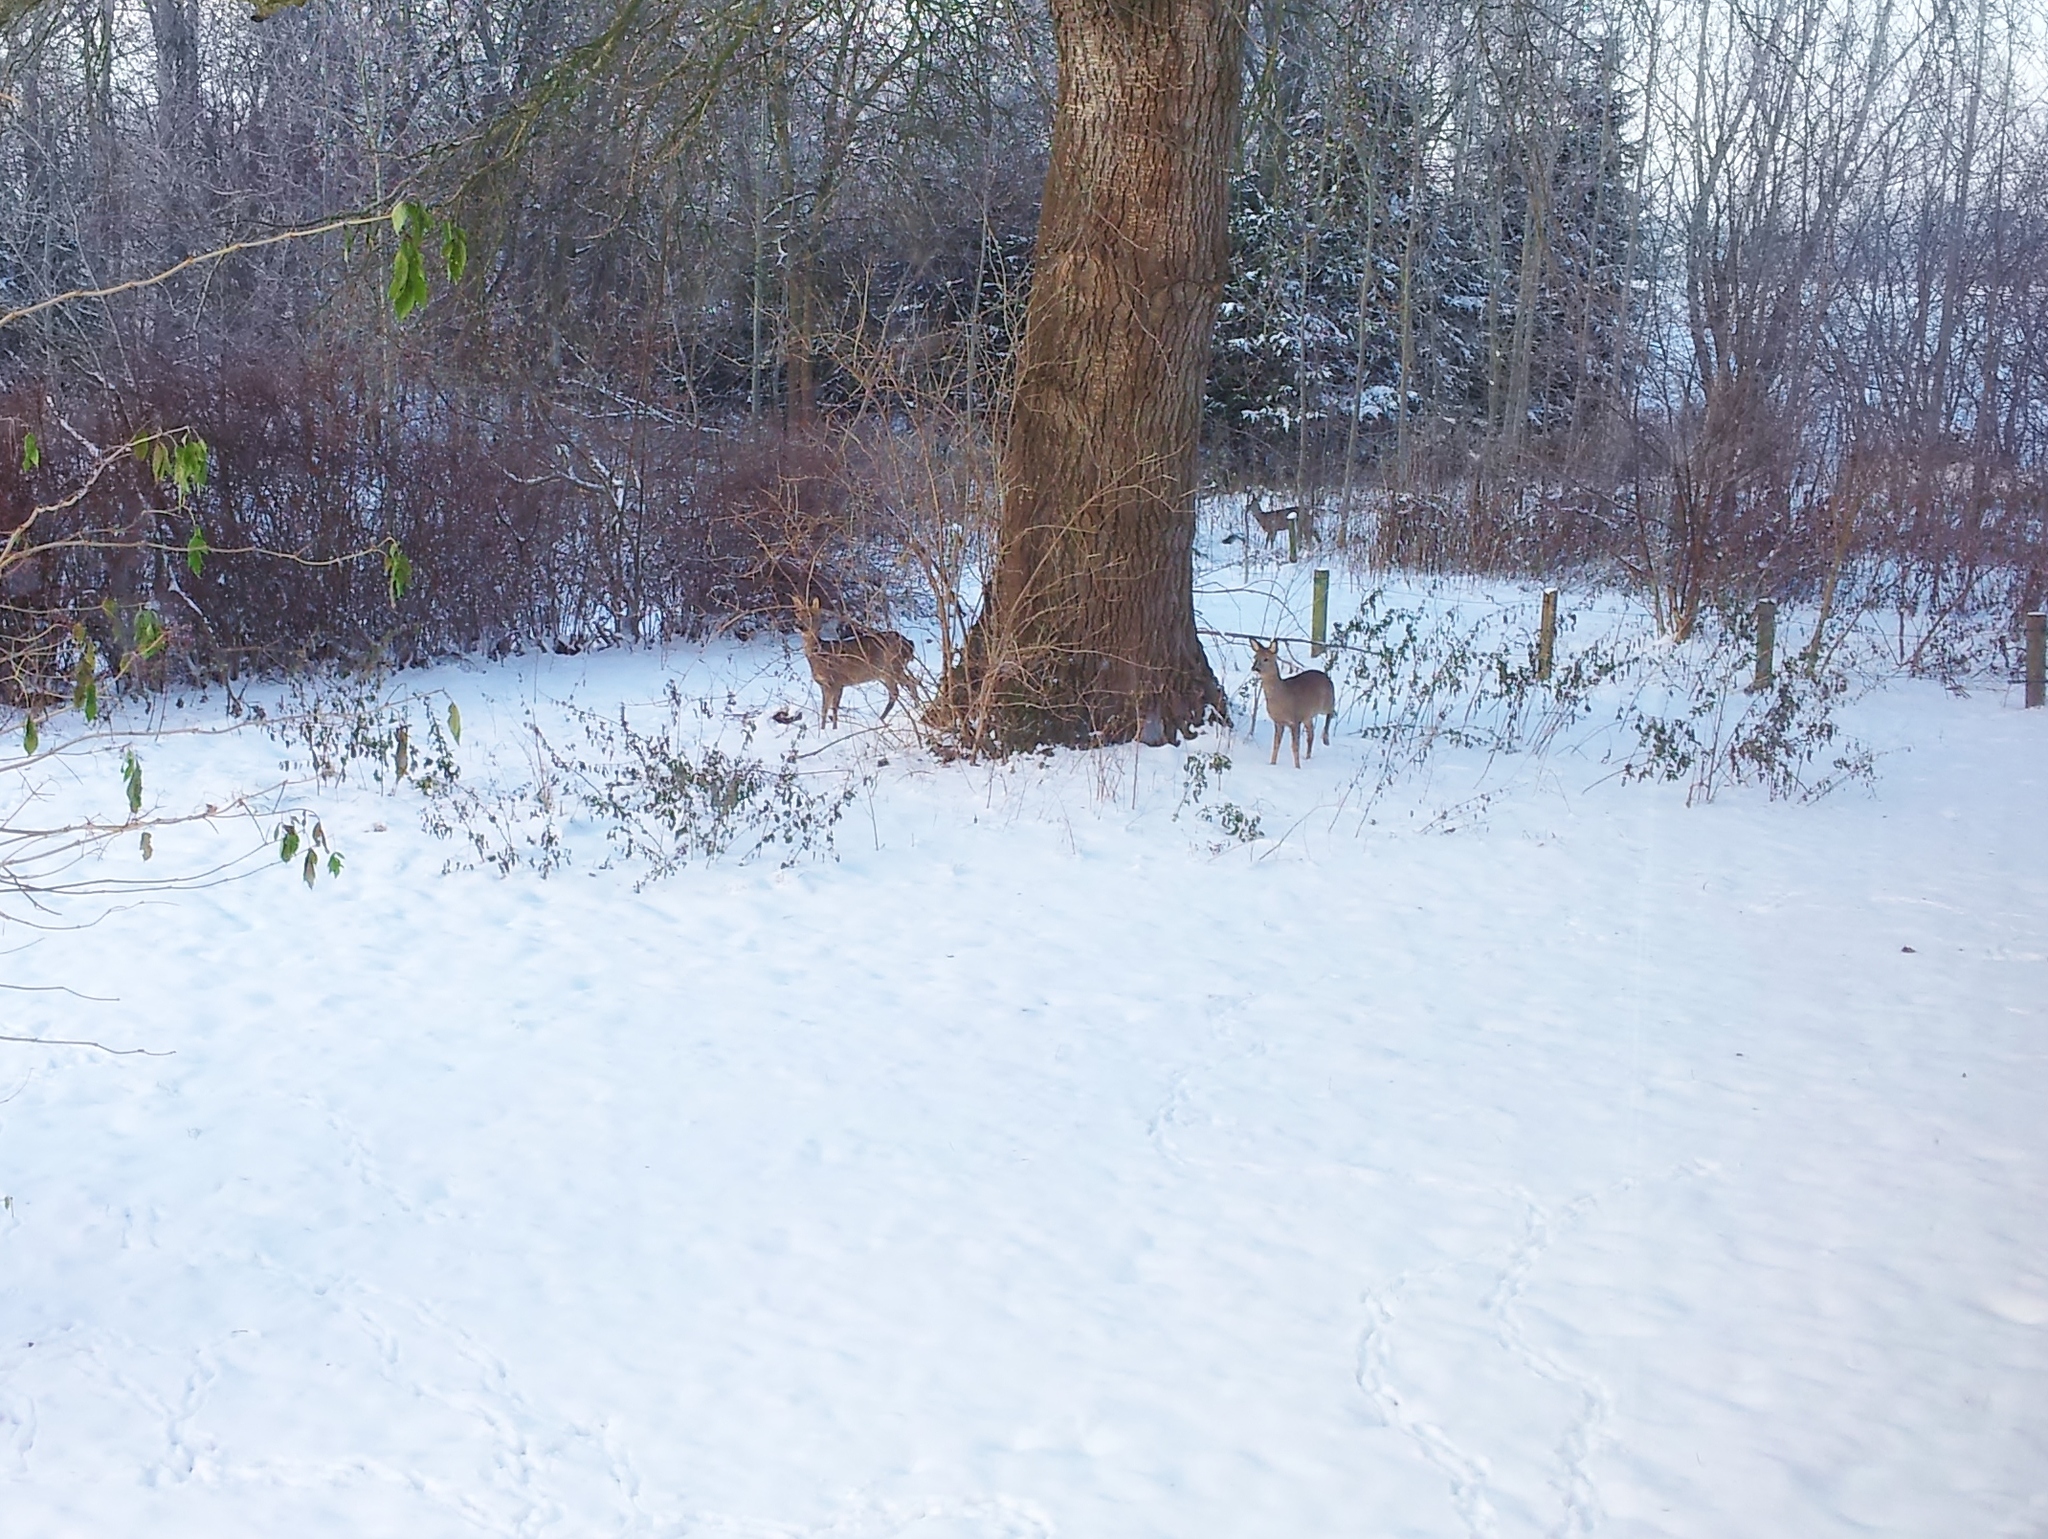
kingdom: Animalia
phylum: Chordata
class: Mammalia
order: Artiodactyla
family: Cervidae
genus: Capreolus
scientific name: Capreolus capreolus
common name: Western roe deer
